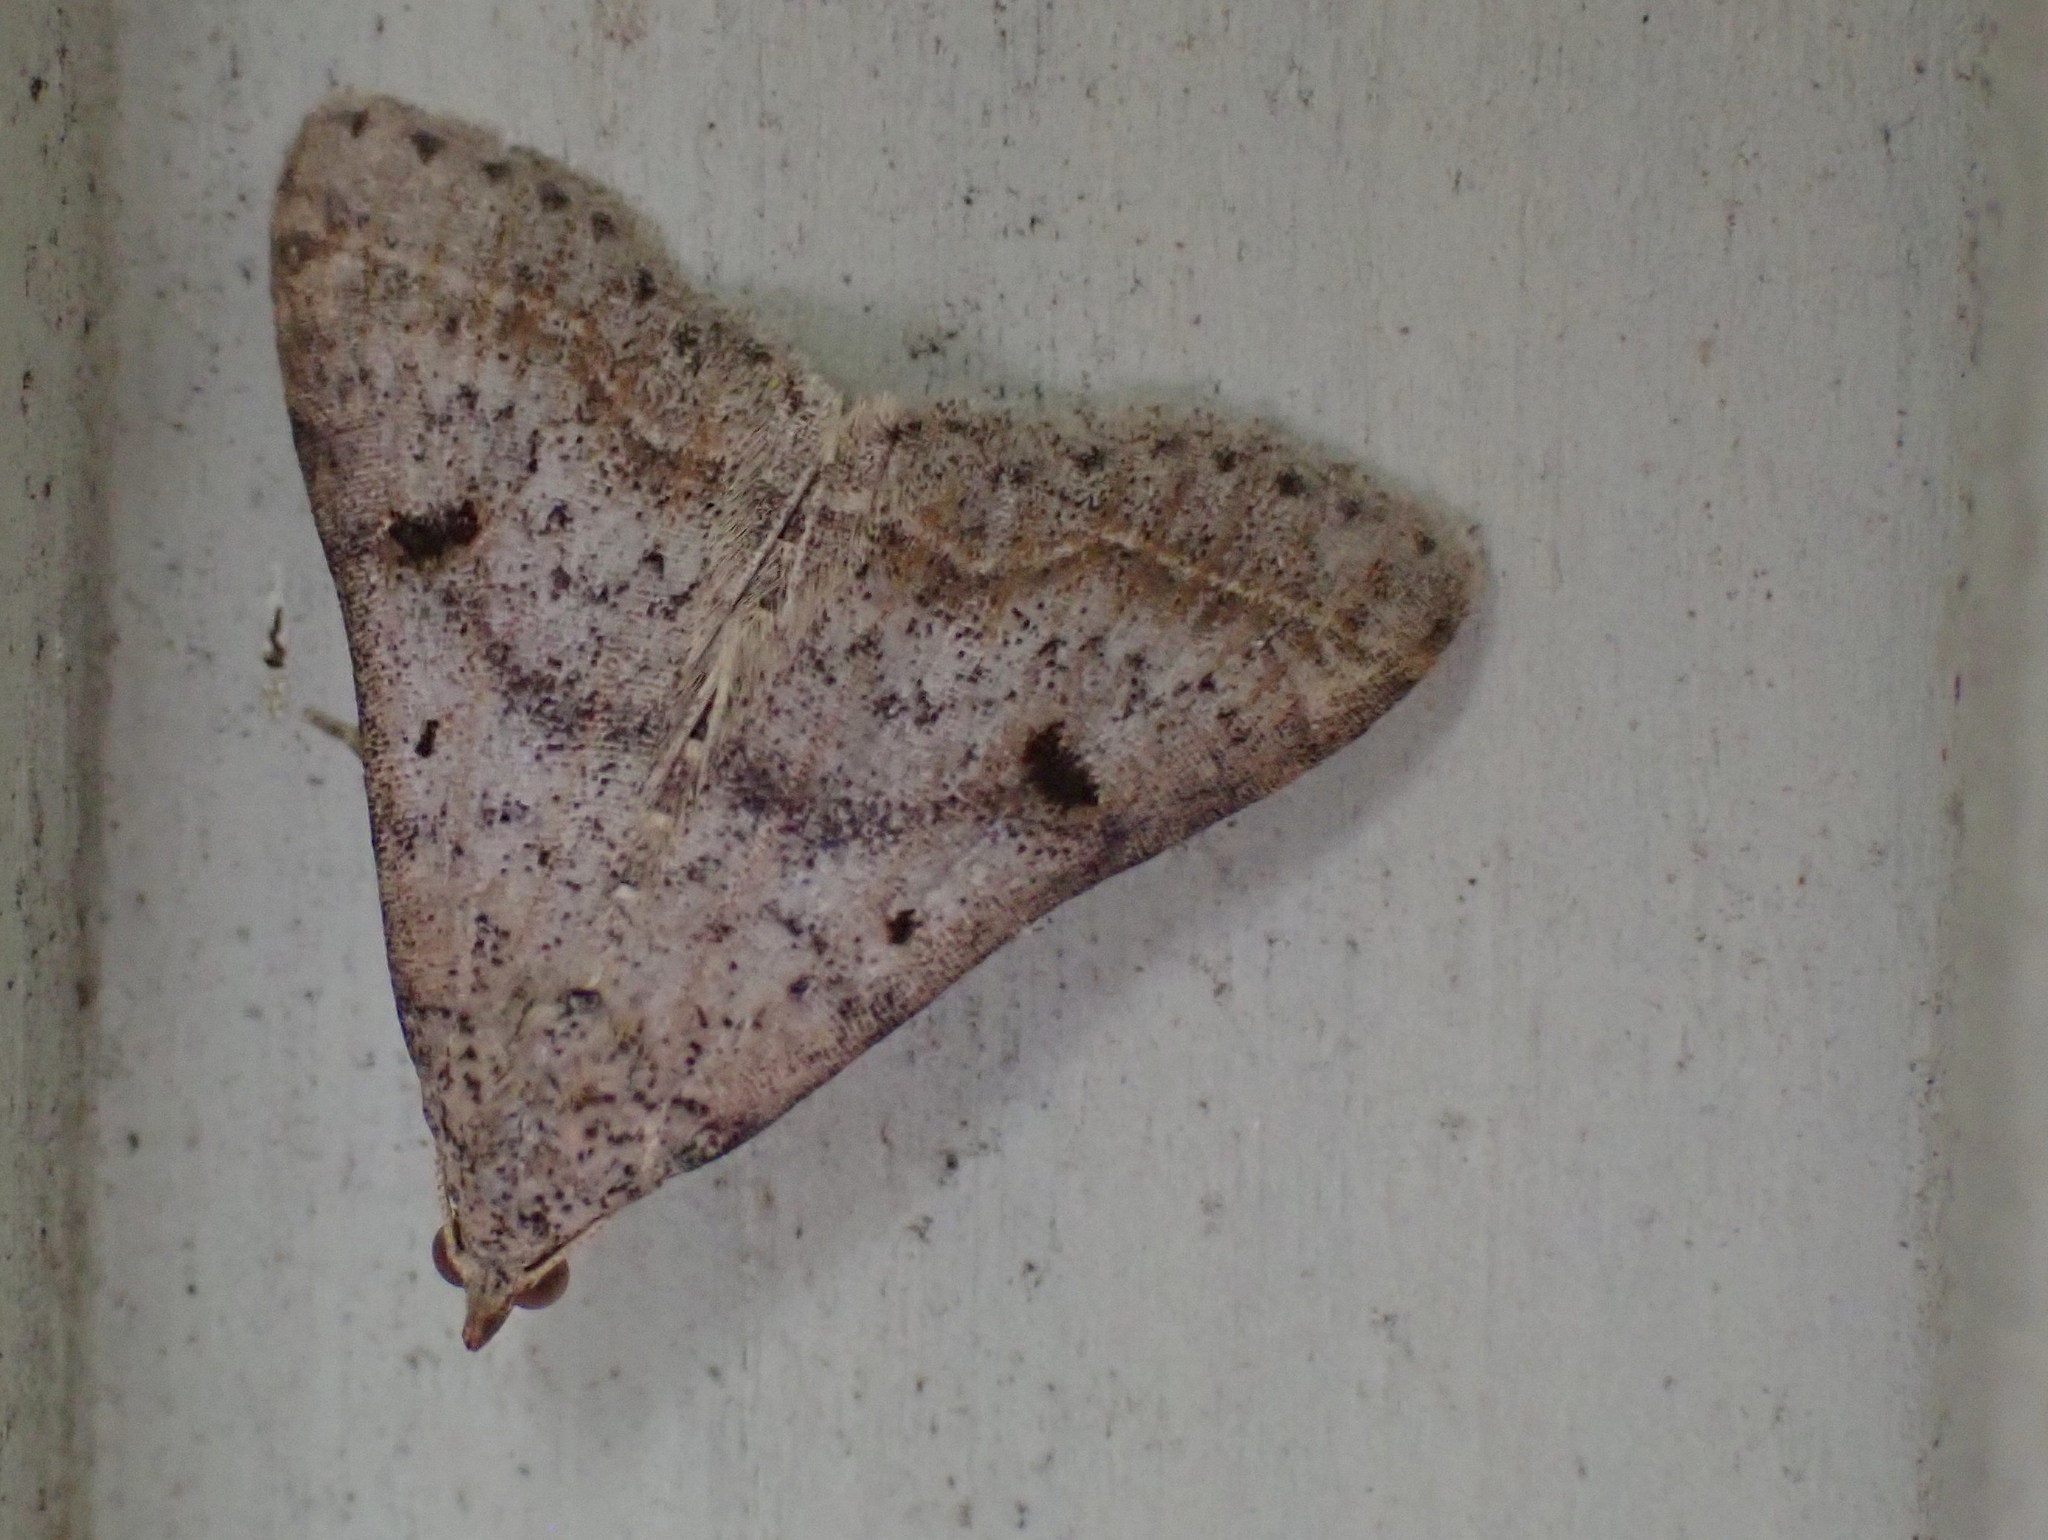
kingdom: Animalia
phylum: Arthropoda
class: Insecta
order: Lepidoptera
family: Erebidae
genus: Bleptina
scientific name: Bleptina caradrinalis
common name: Bent-winged owlet
